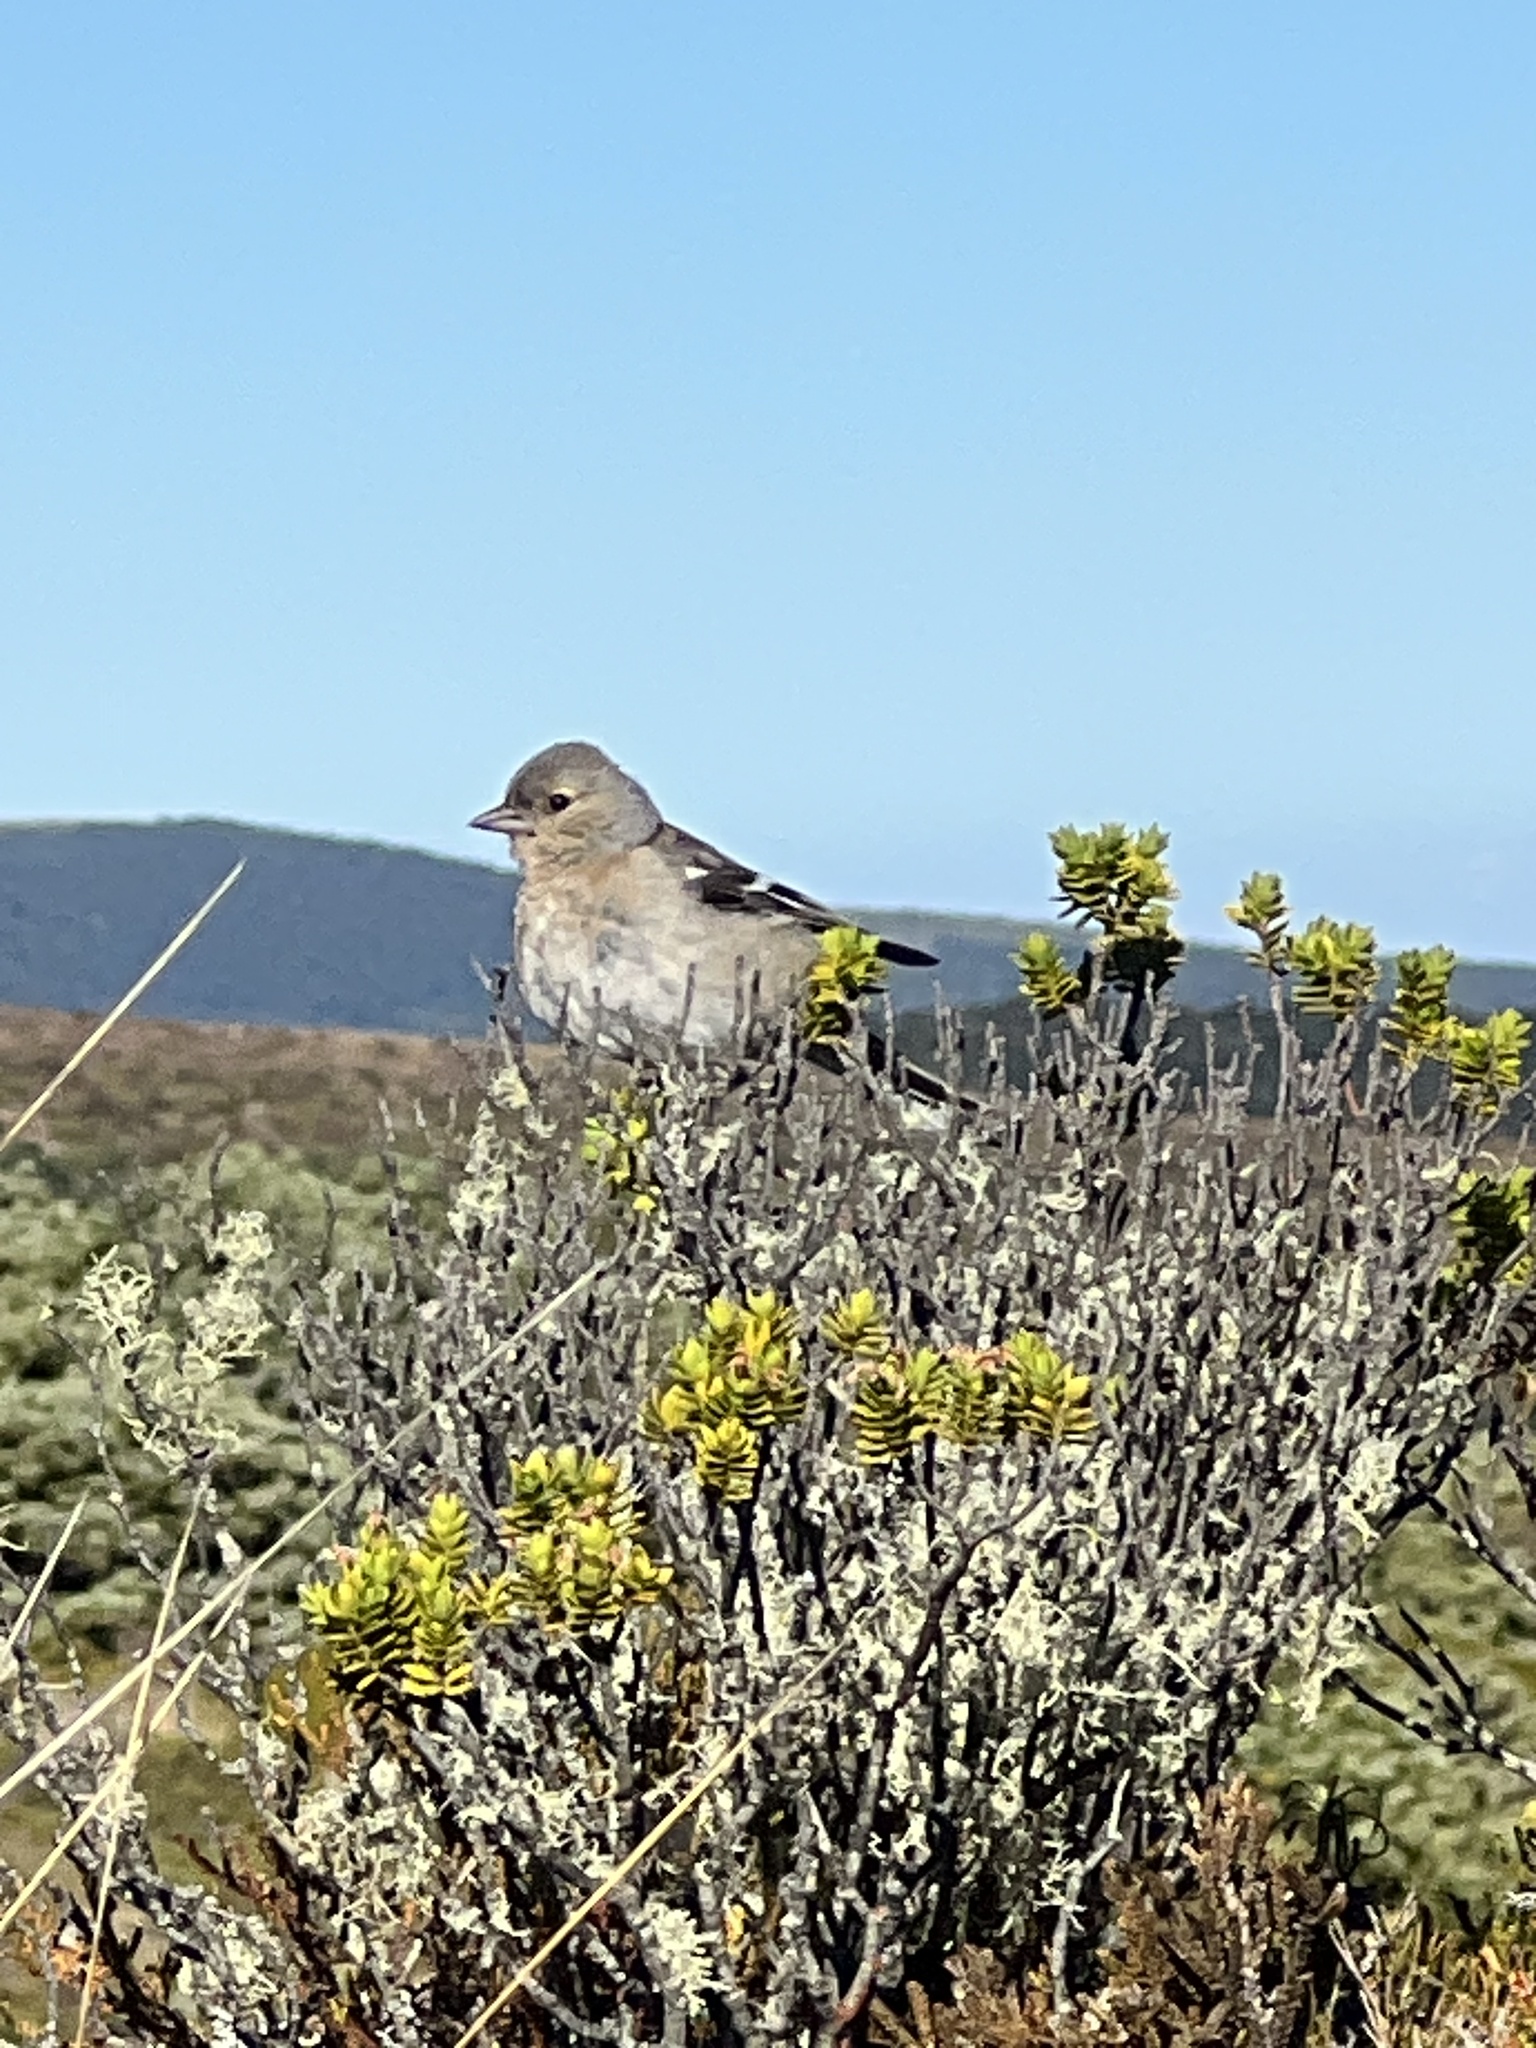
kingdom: Animalia
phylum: Chordata
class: Aves
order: Passeriformes
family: Fringillidae
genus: Fringilla
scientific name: Fringilla coelebs
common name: Common chaffinch
